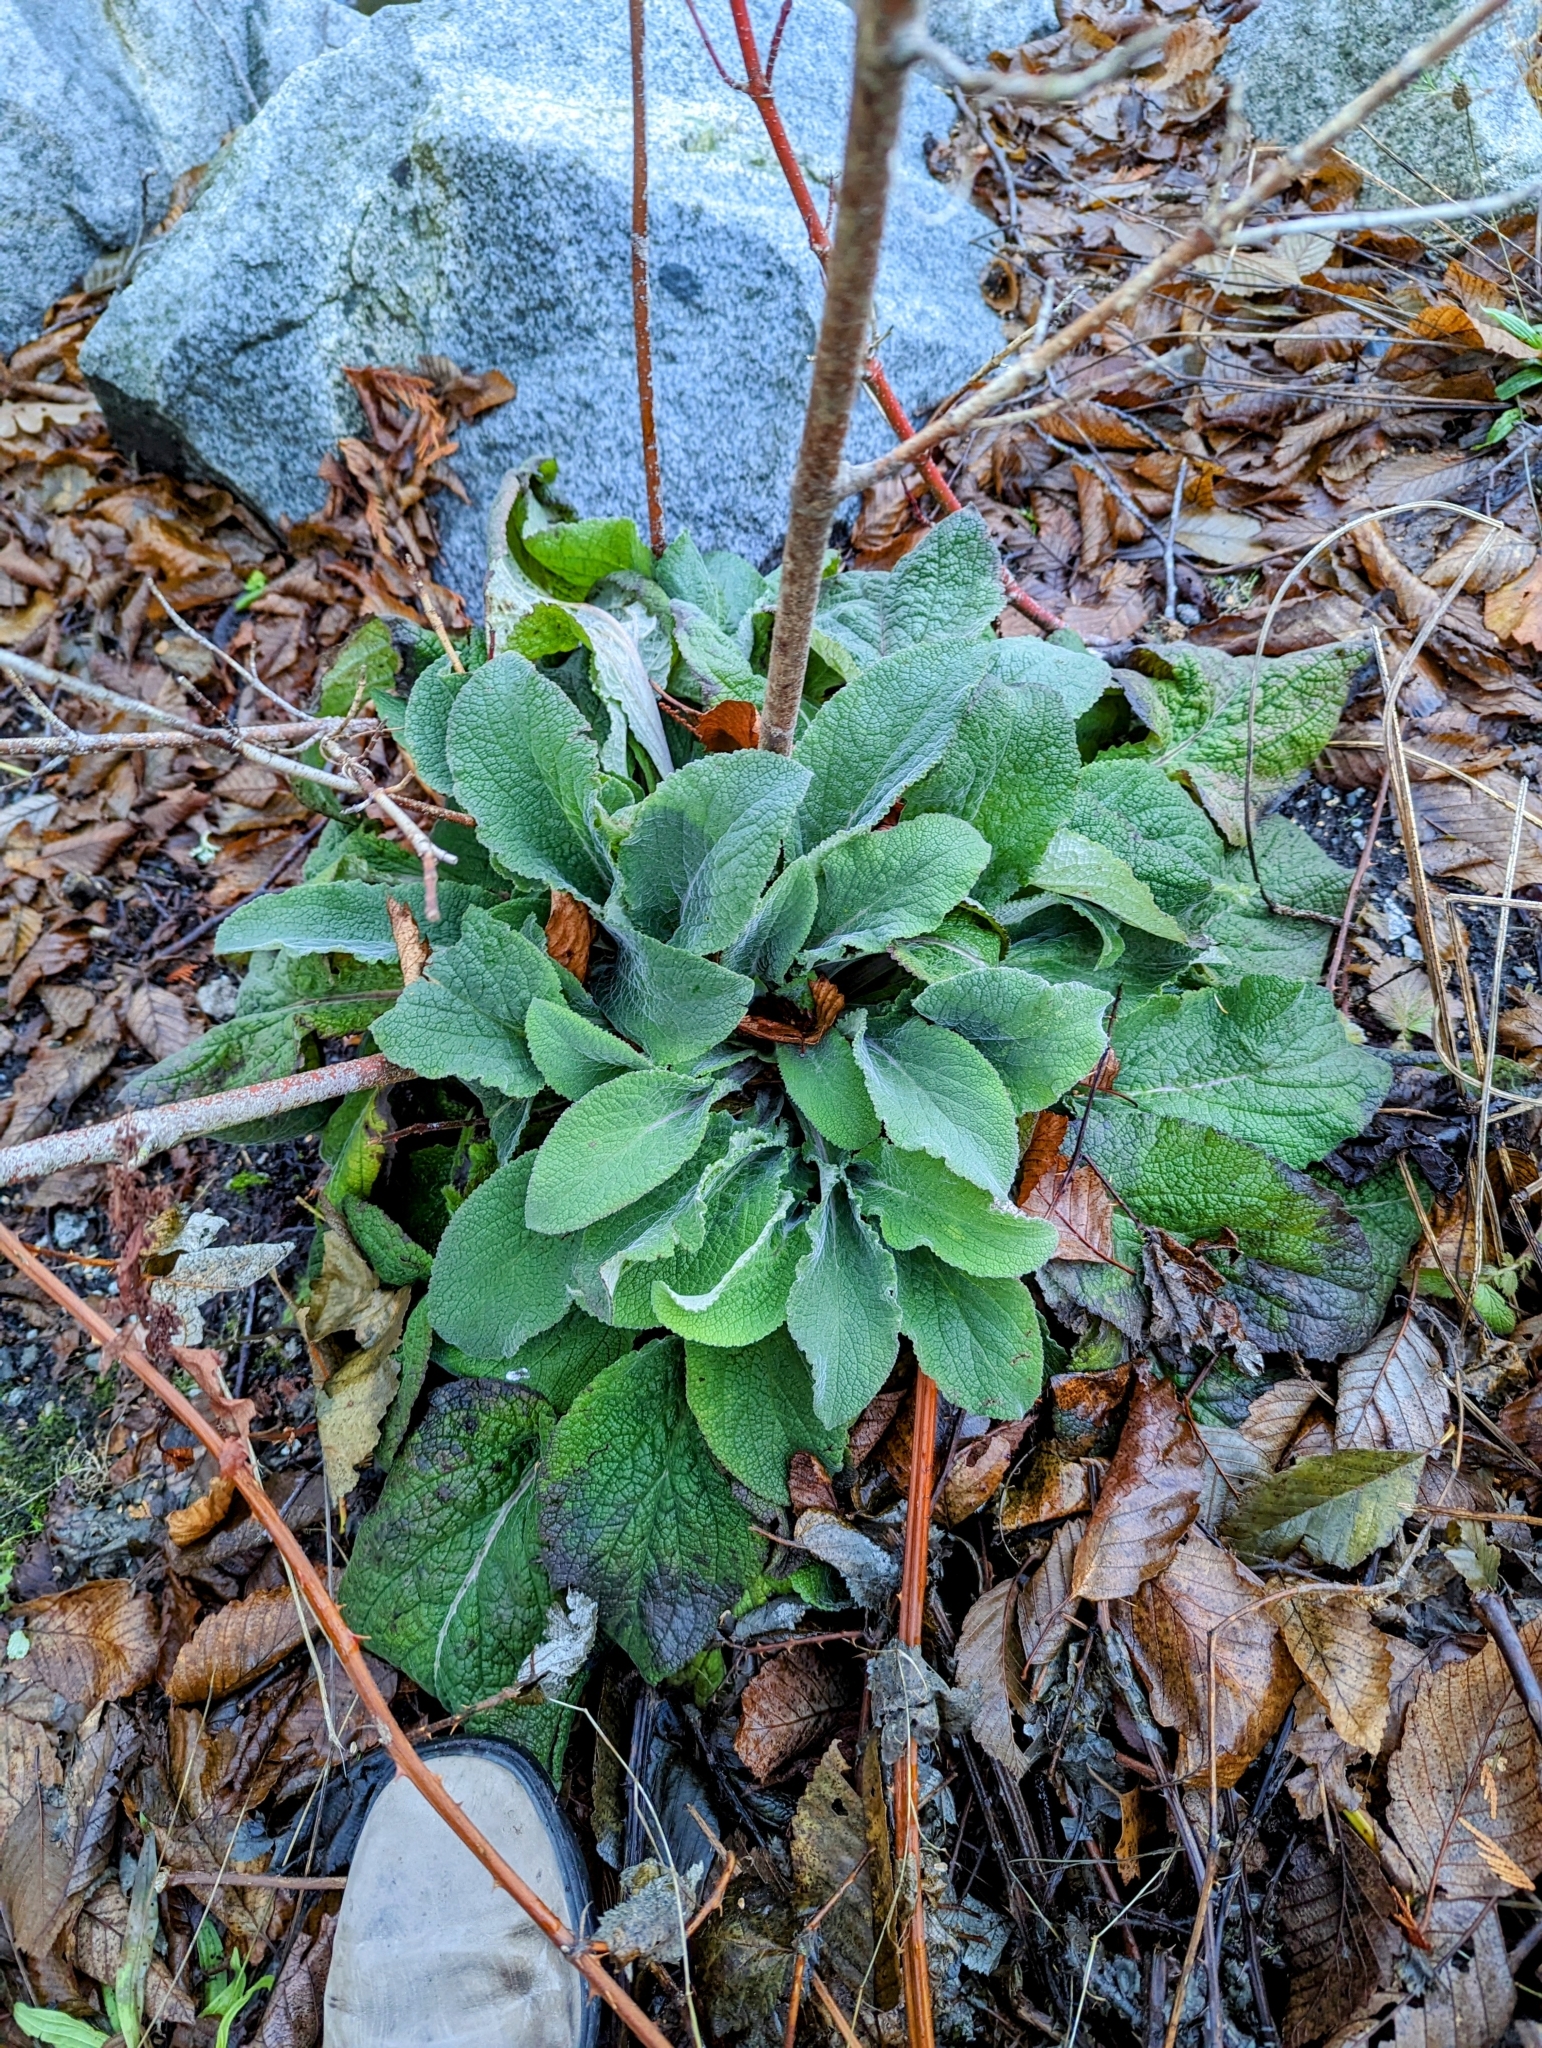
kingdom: Plantae
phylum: Tracheophyta
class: Magnoliopsida
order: Lamiales
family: Plantaginaceae
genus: Digitalis
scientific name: Digitalis purpurea
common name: Foxglove
